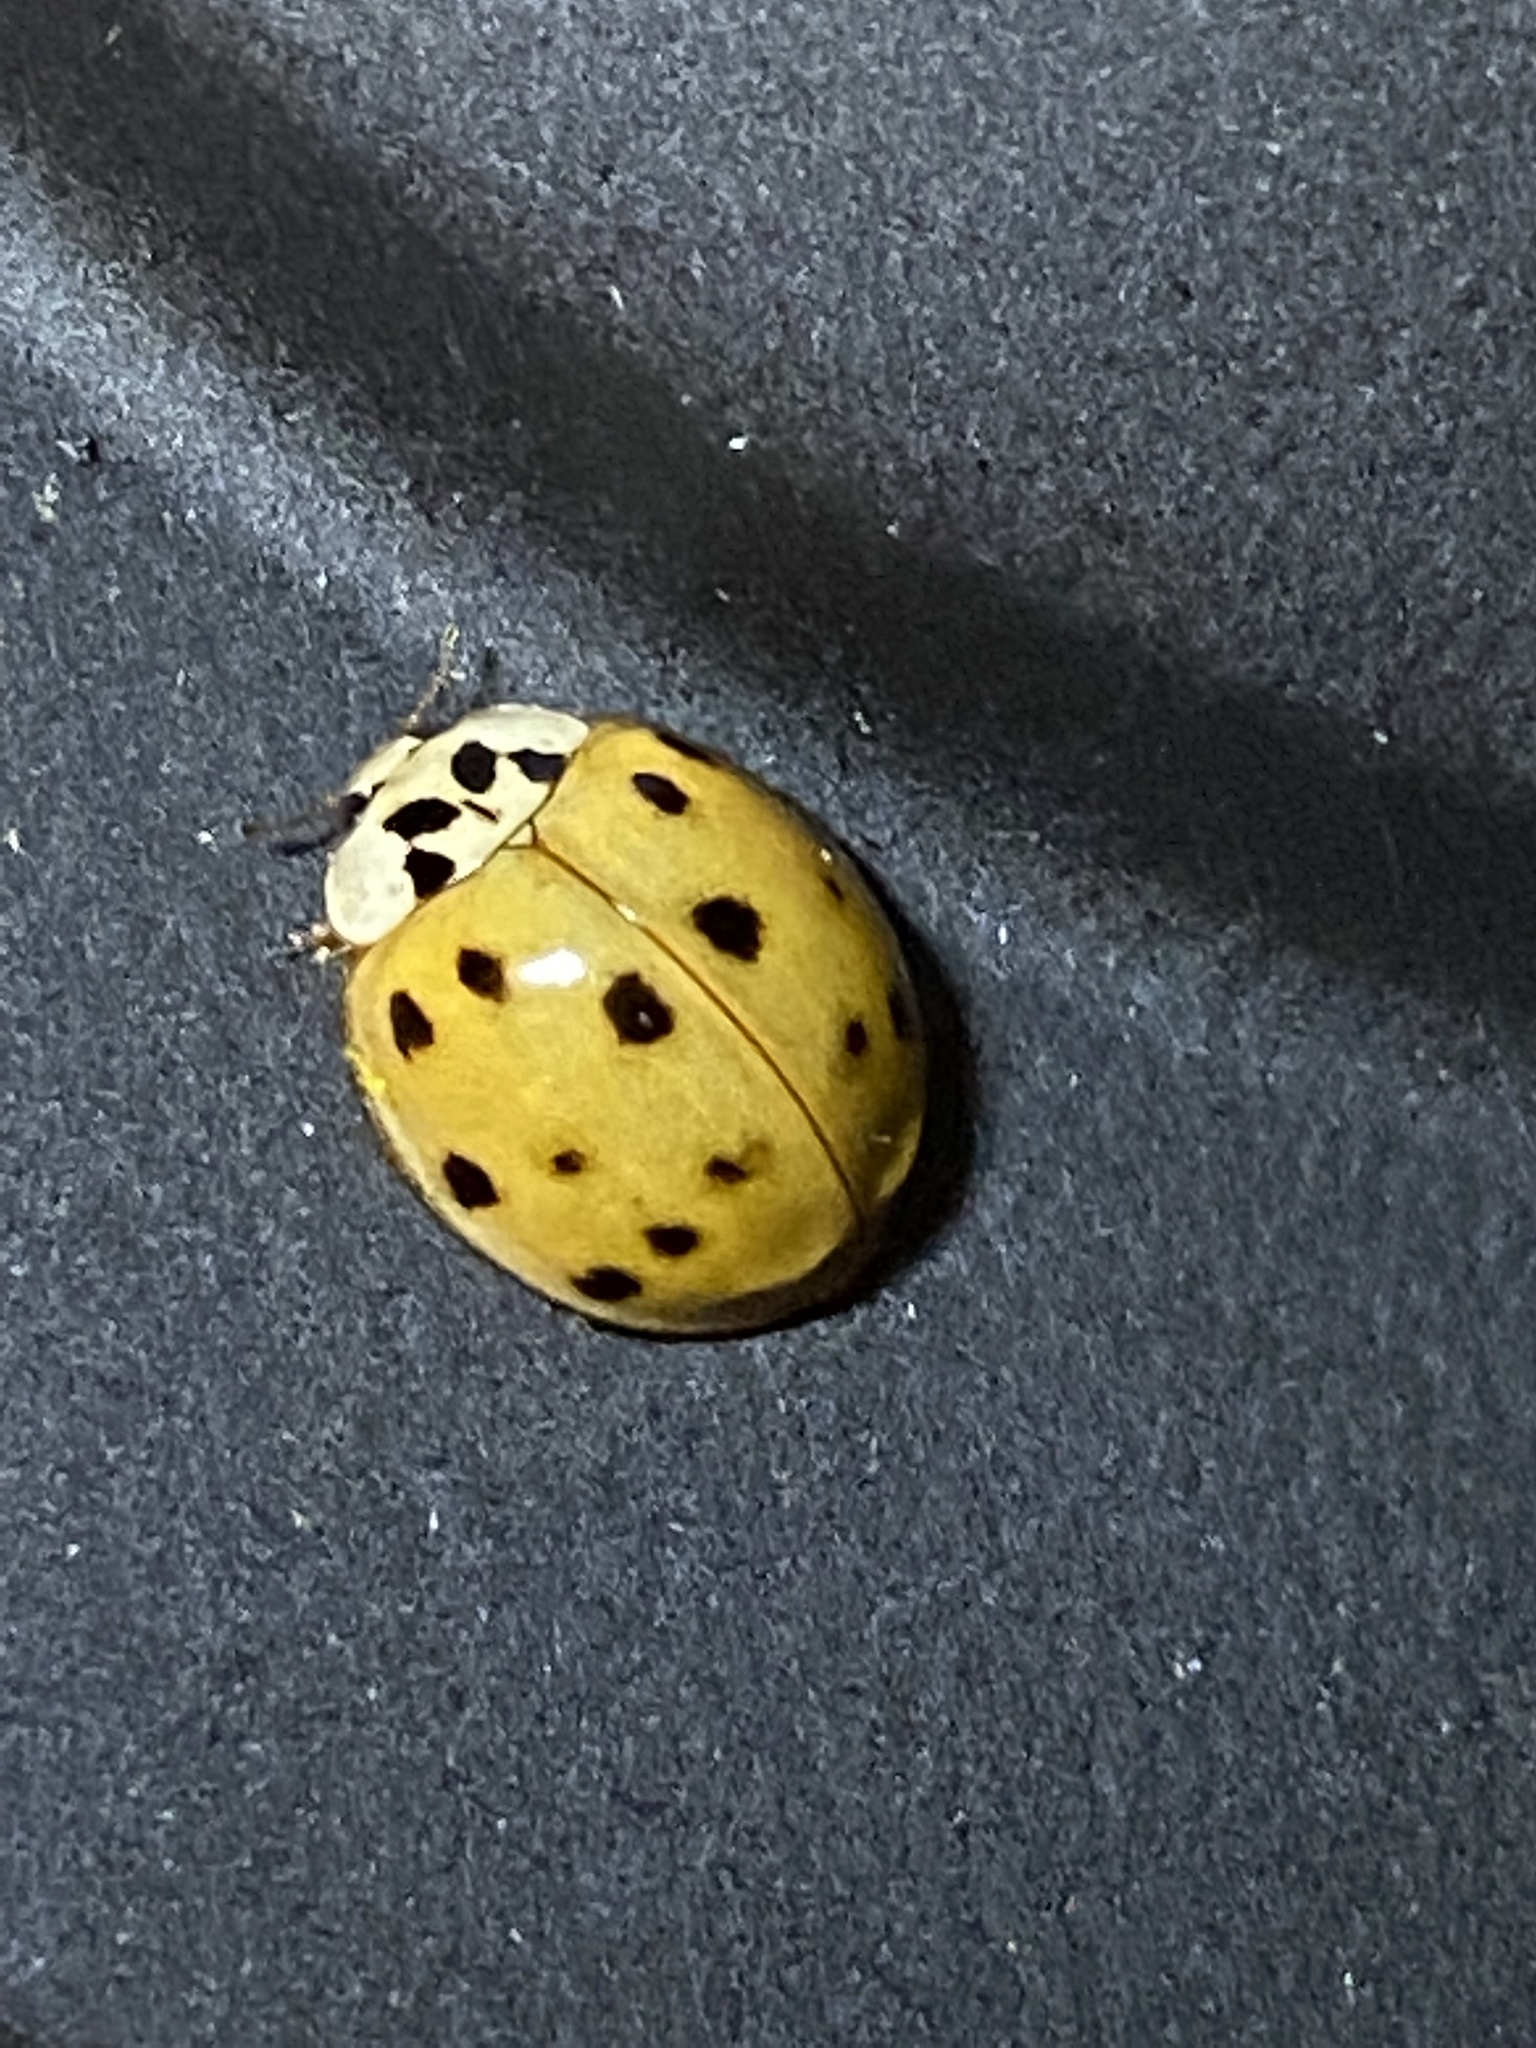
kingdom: Animalia
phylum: Arthropoda
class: Insecta
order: Coleoptera
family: Coccinellidae
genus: Harmonia
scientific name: Harmonia axyridis
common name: Harlequin ladybird
